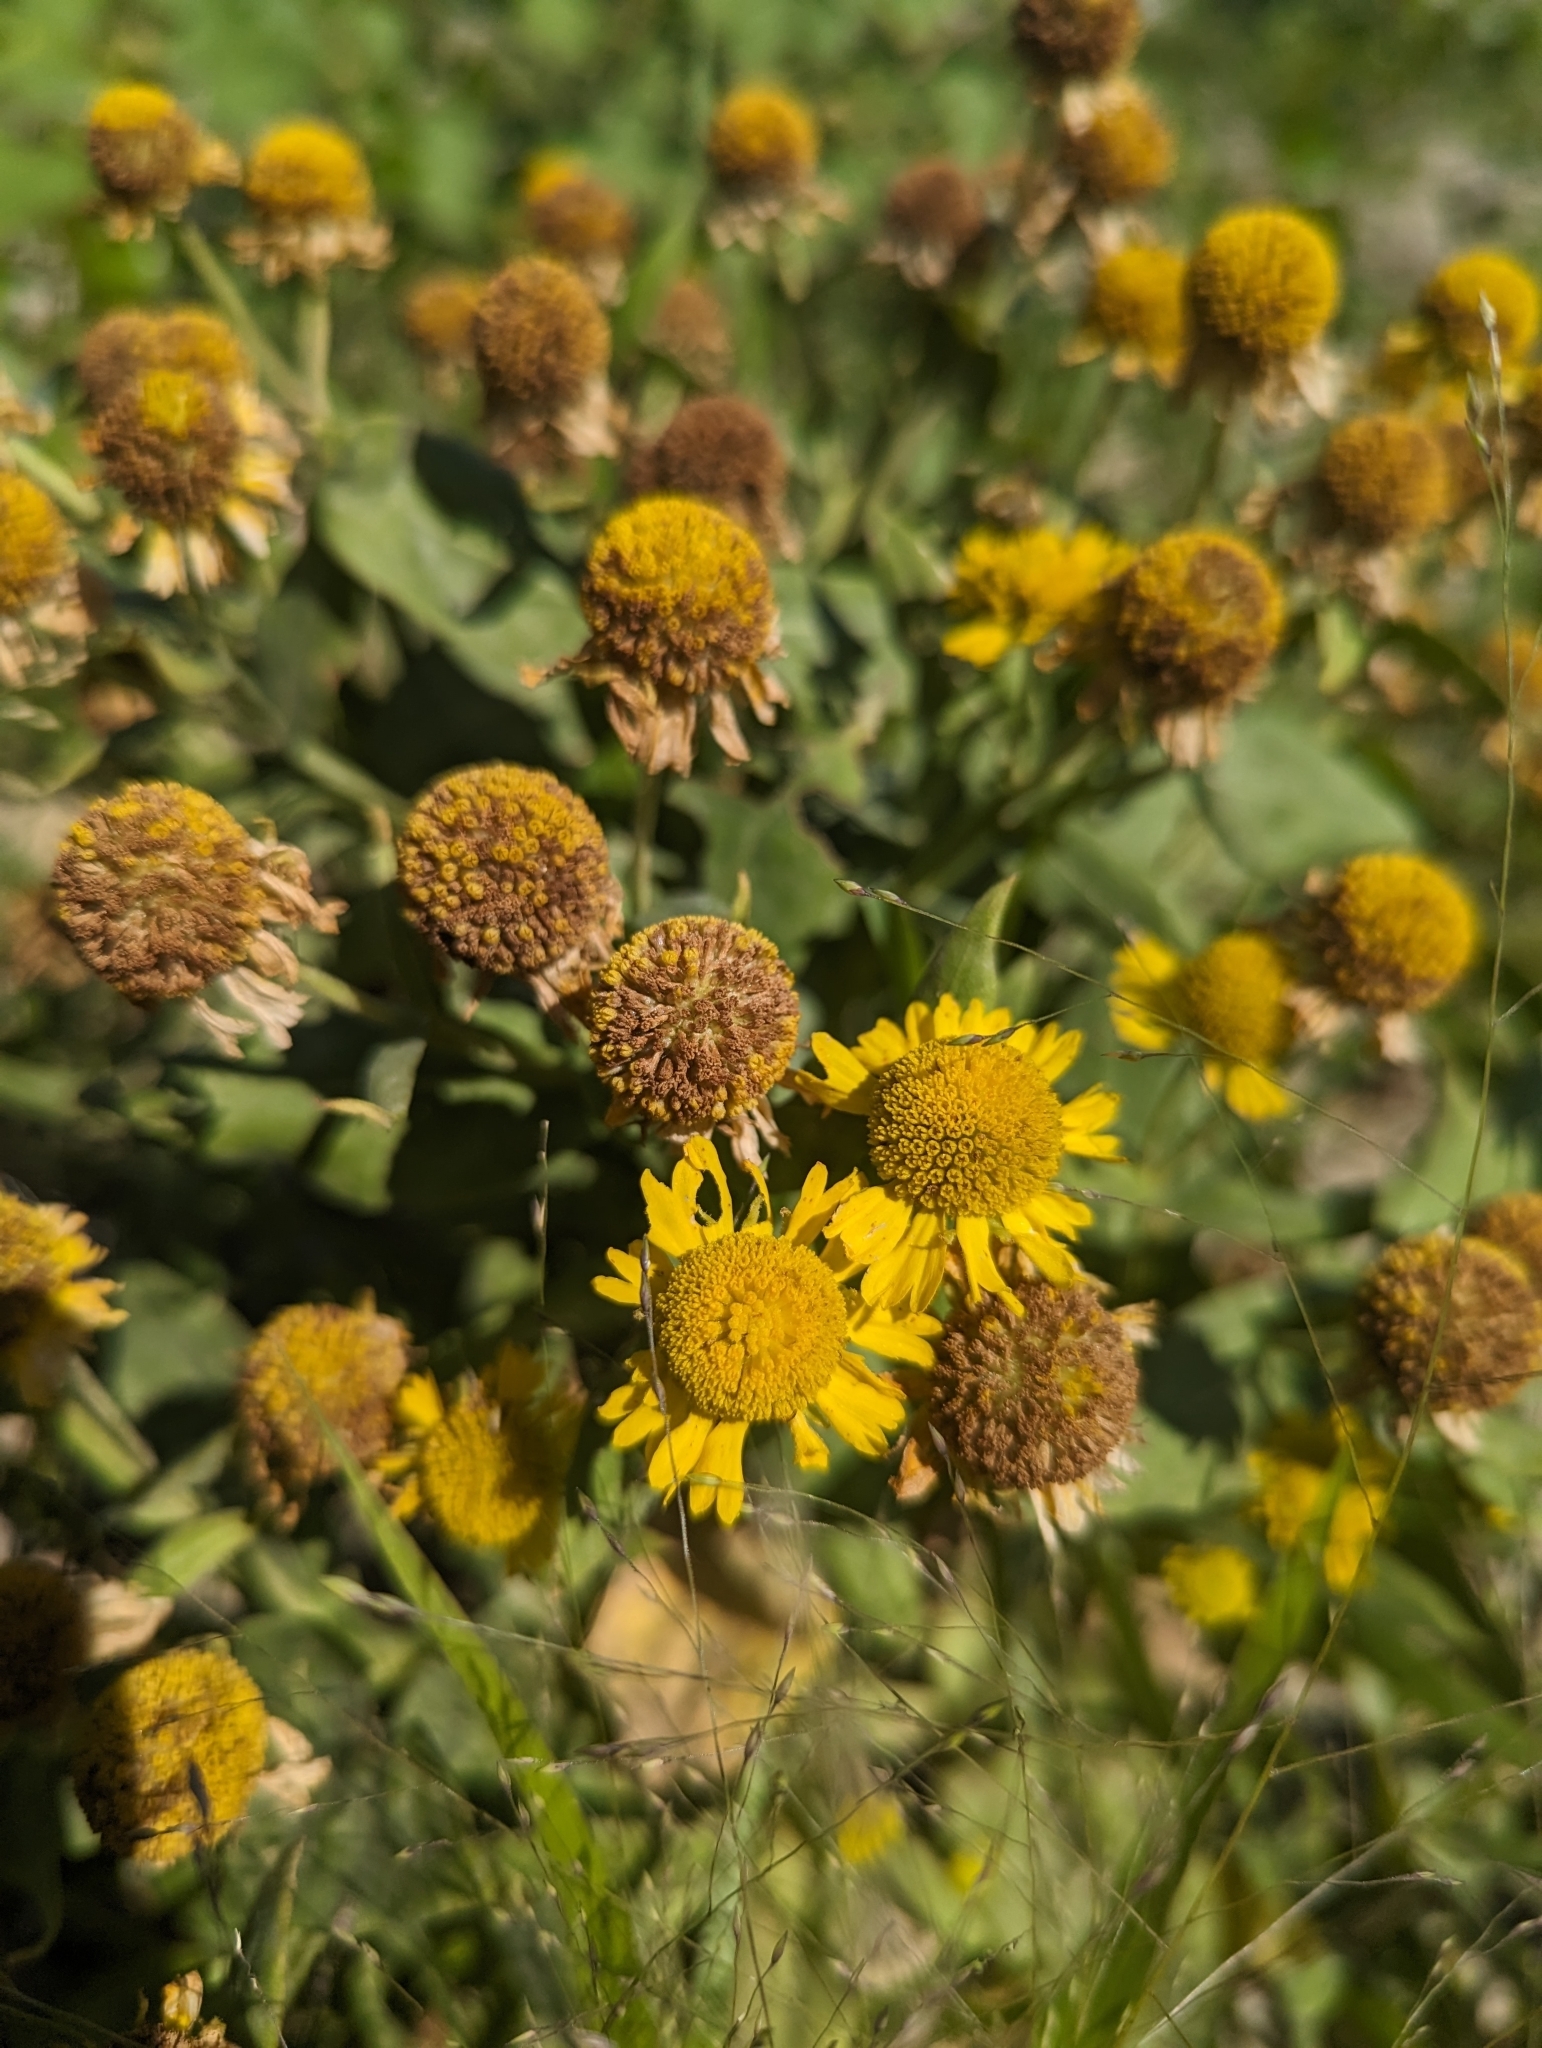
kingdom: Plantae
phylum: Tracheophyta
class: Magnoliopsida
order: Asterales
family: Asteraceae
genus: Helenium
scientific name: Helenium autumnale
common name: Sneezeweed
